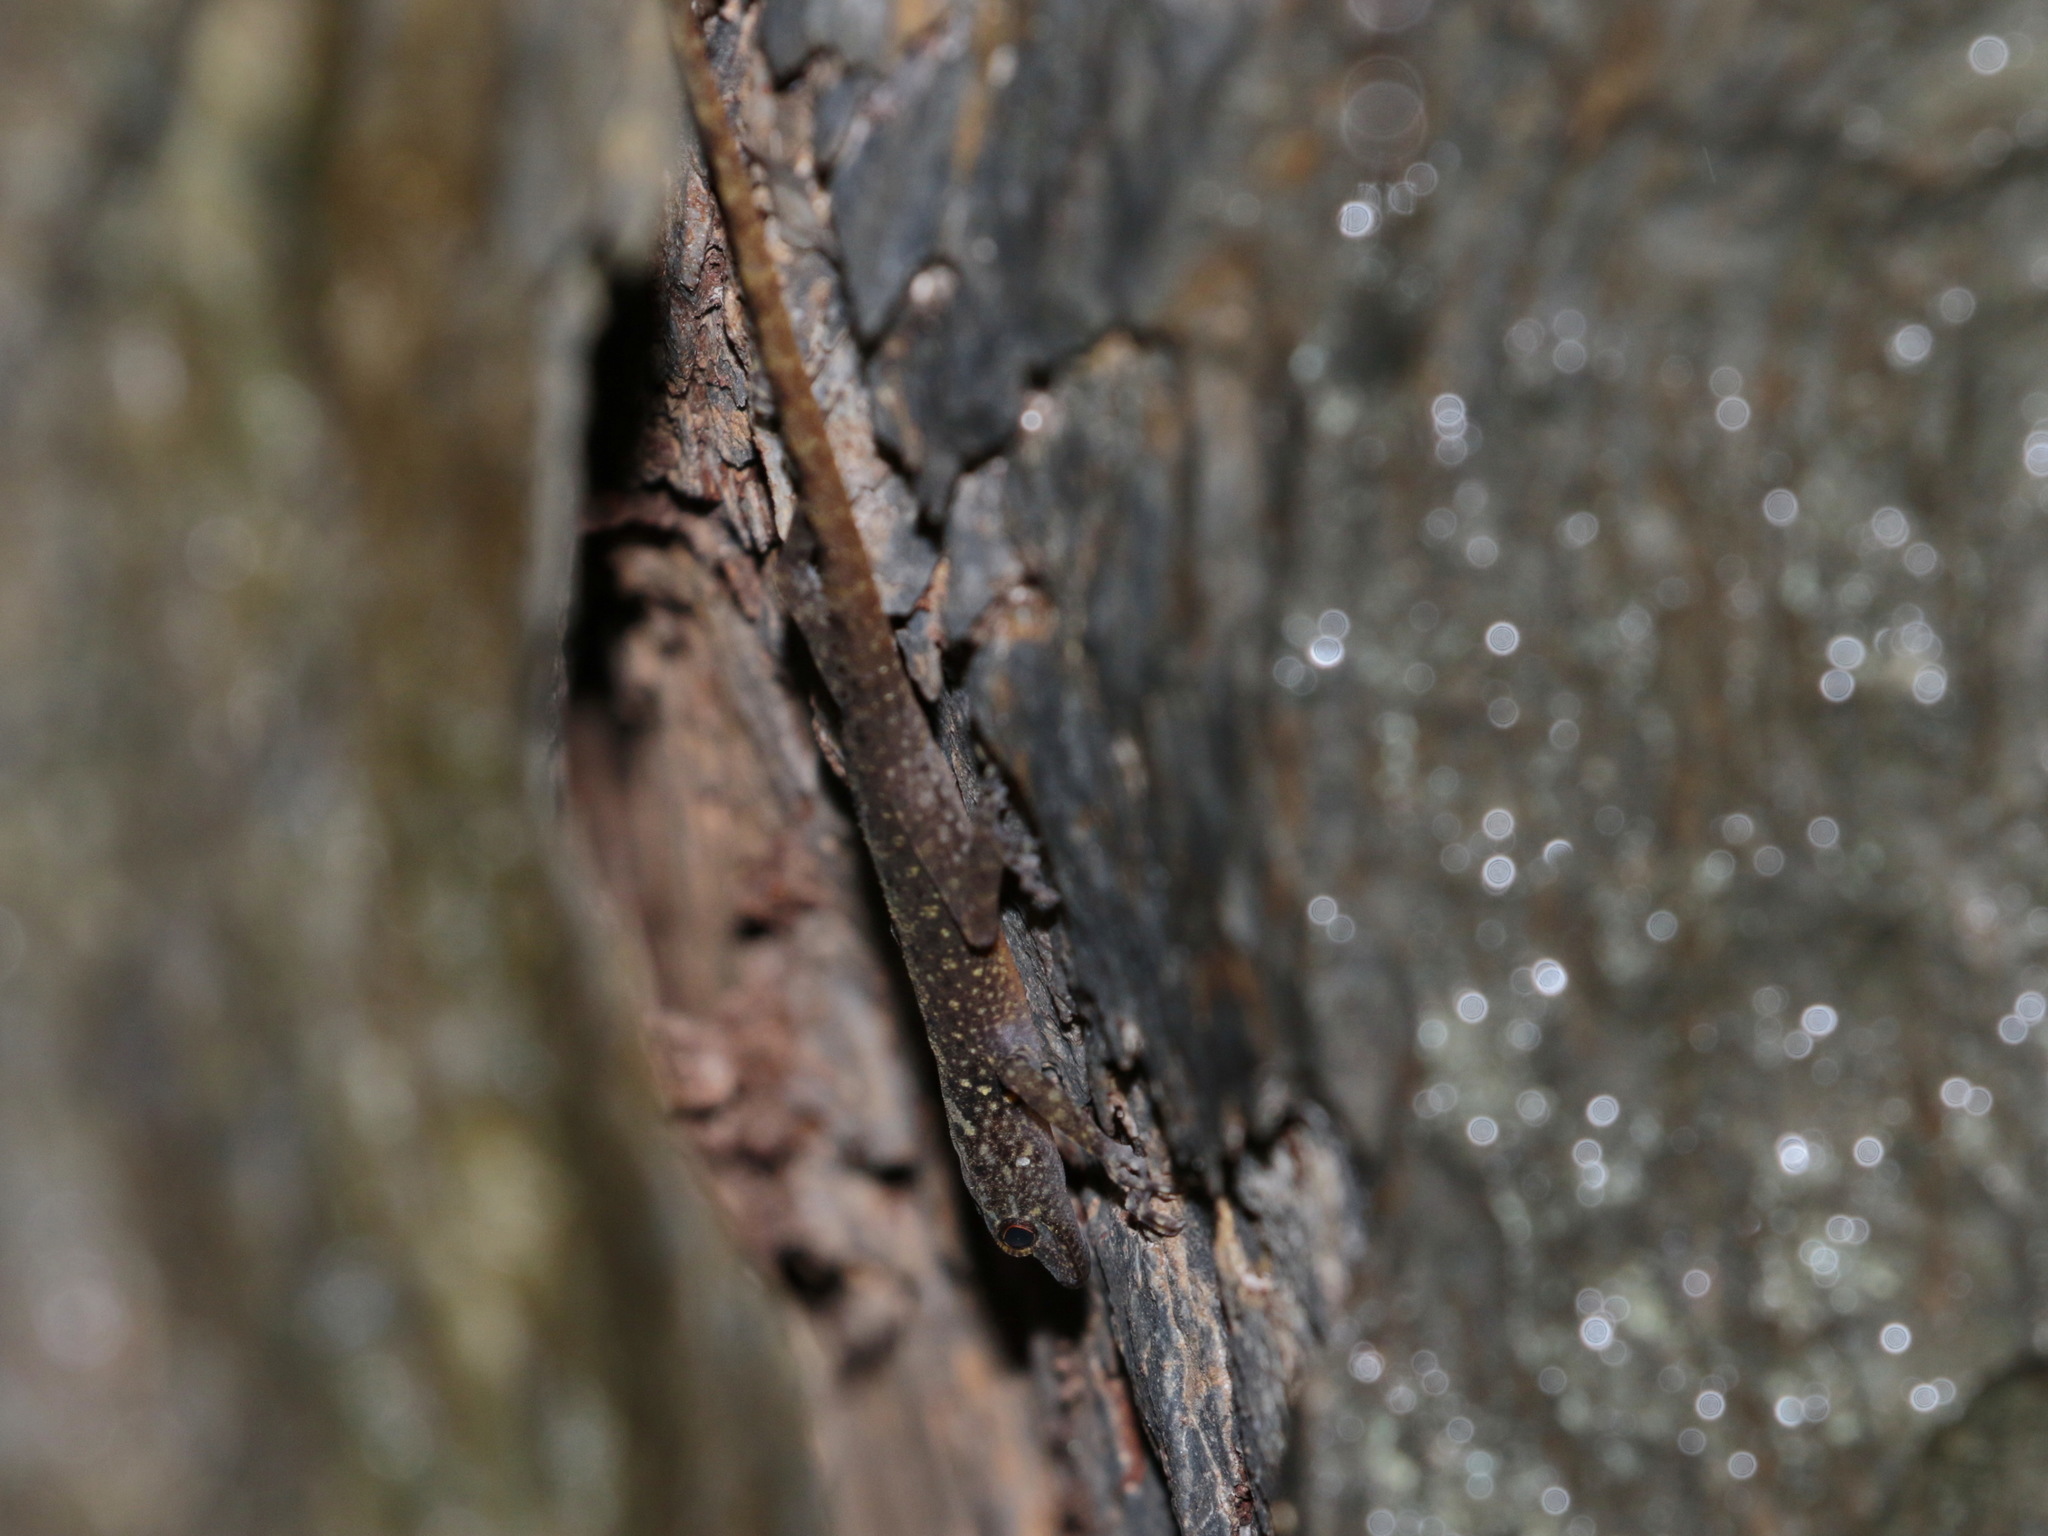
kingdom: Animalia
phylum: Chordata
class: Squamata
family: Gekkonidae
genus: Cnemaspis
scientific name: Cnemaspis biocellata
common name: Twin-spot rock gecko
